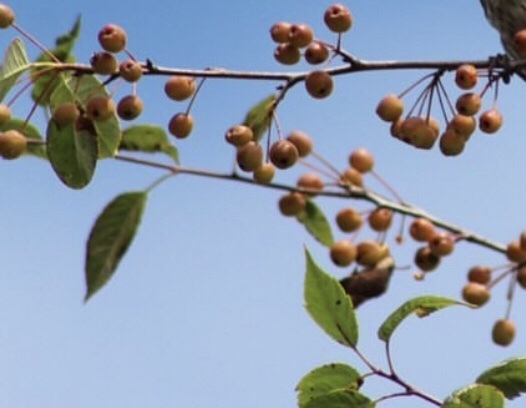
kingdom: Plantae
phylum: Tracheophyta
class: Magnoliopsida
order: Rosales
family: Rosaceae
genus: Malus
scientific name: Malus fusca
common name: Oregon crab apple
